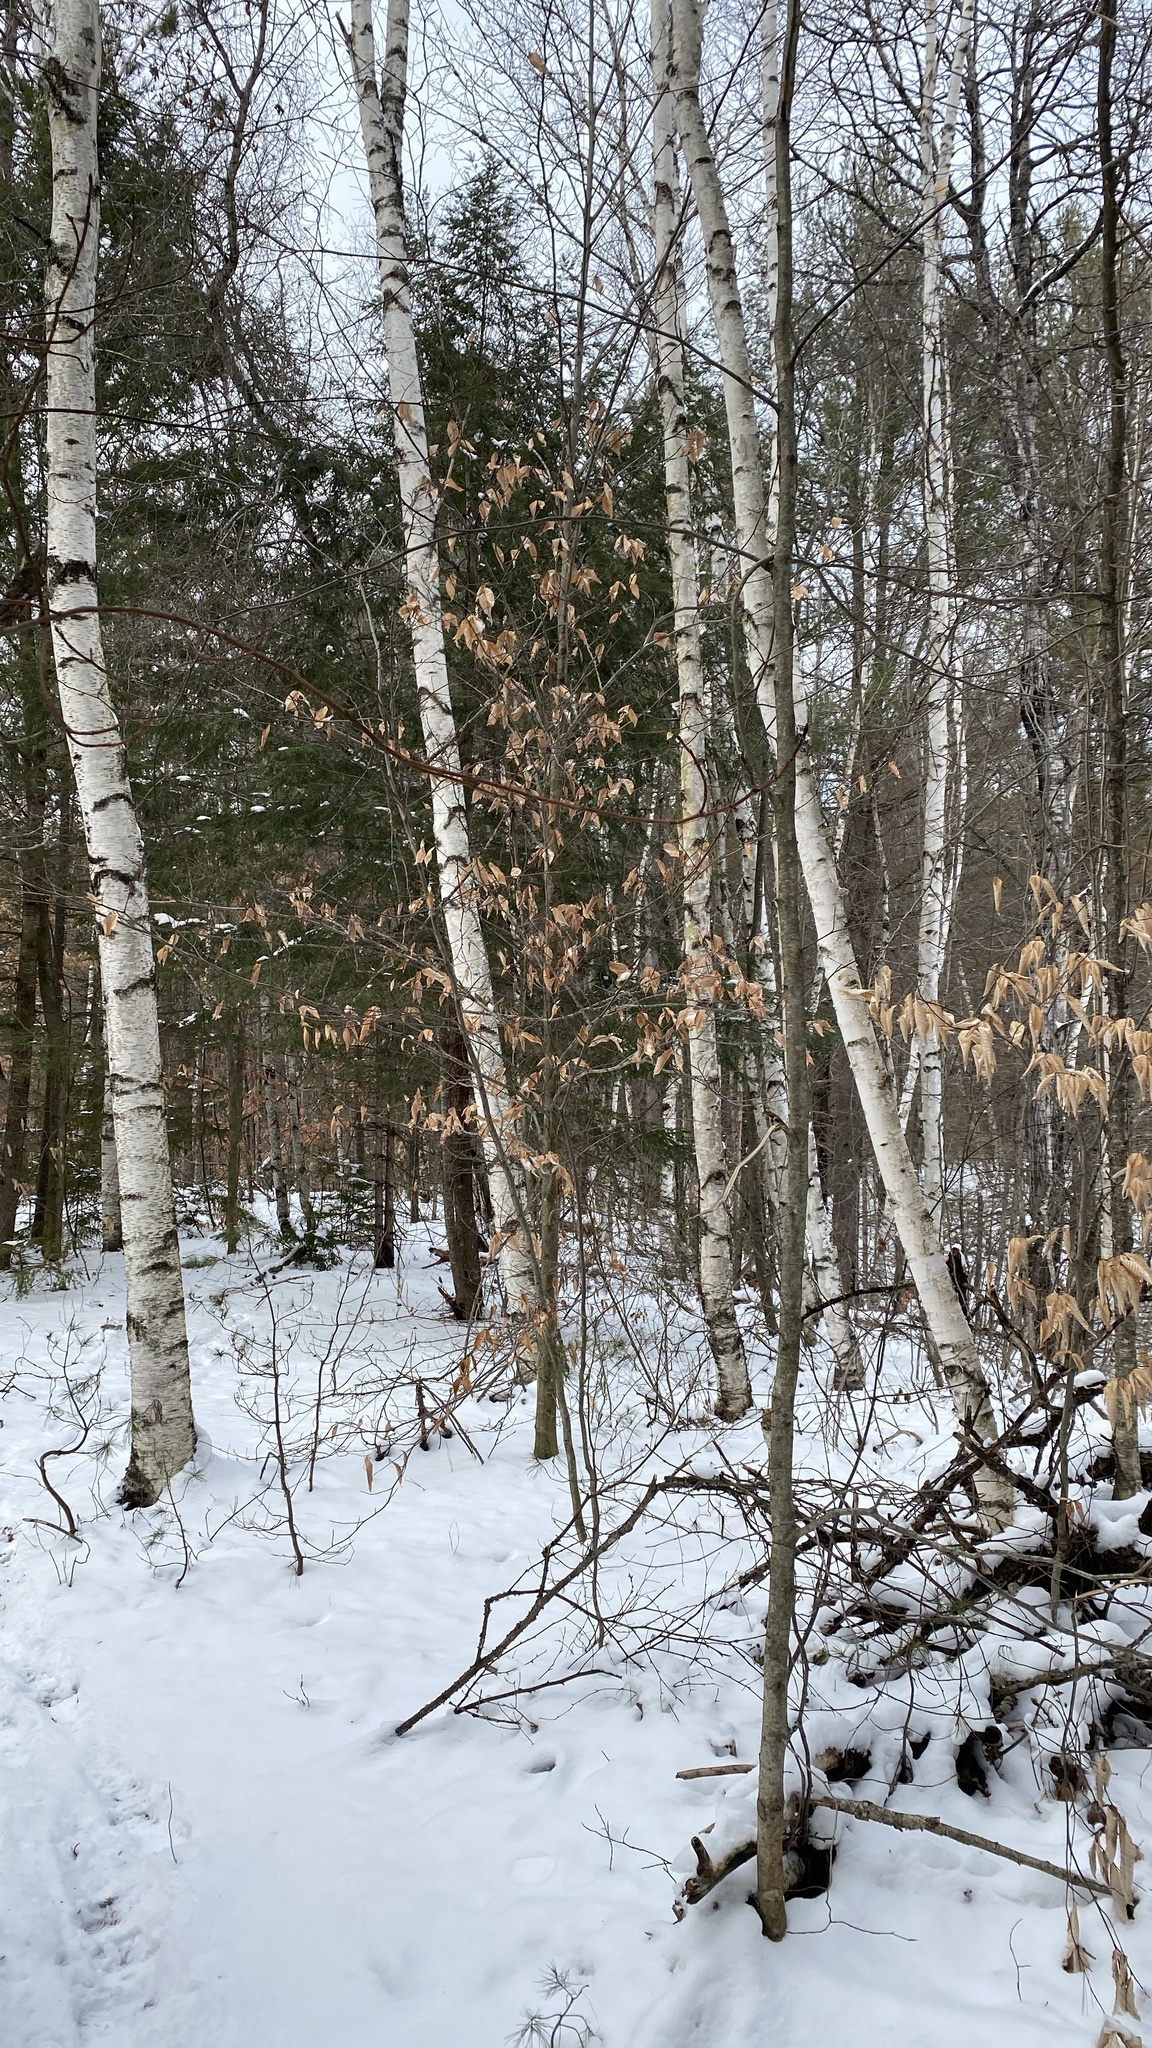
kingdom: Plantae
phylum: Tracheophyta
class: Magnoliopsida
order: Fagales
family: Betulaceae
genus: Betula
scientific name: Betula papyrifera
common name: Paper birch
